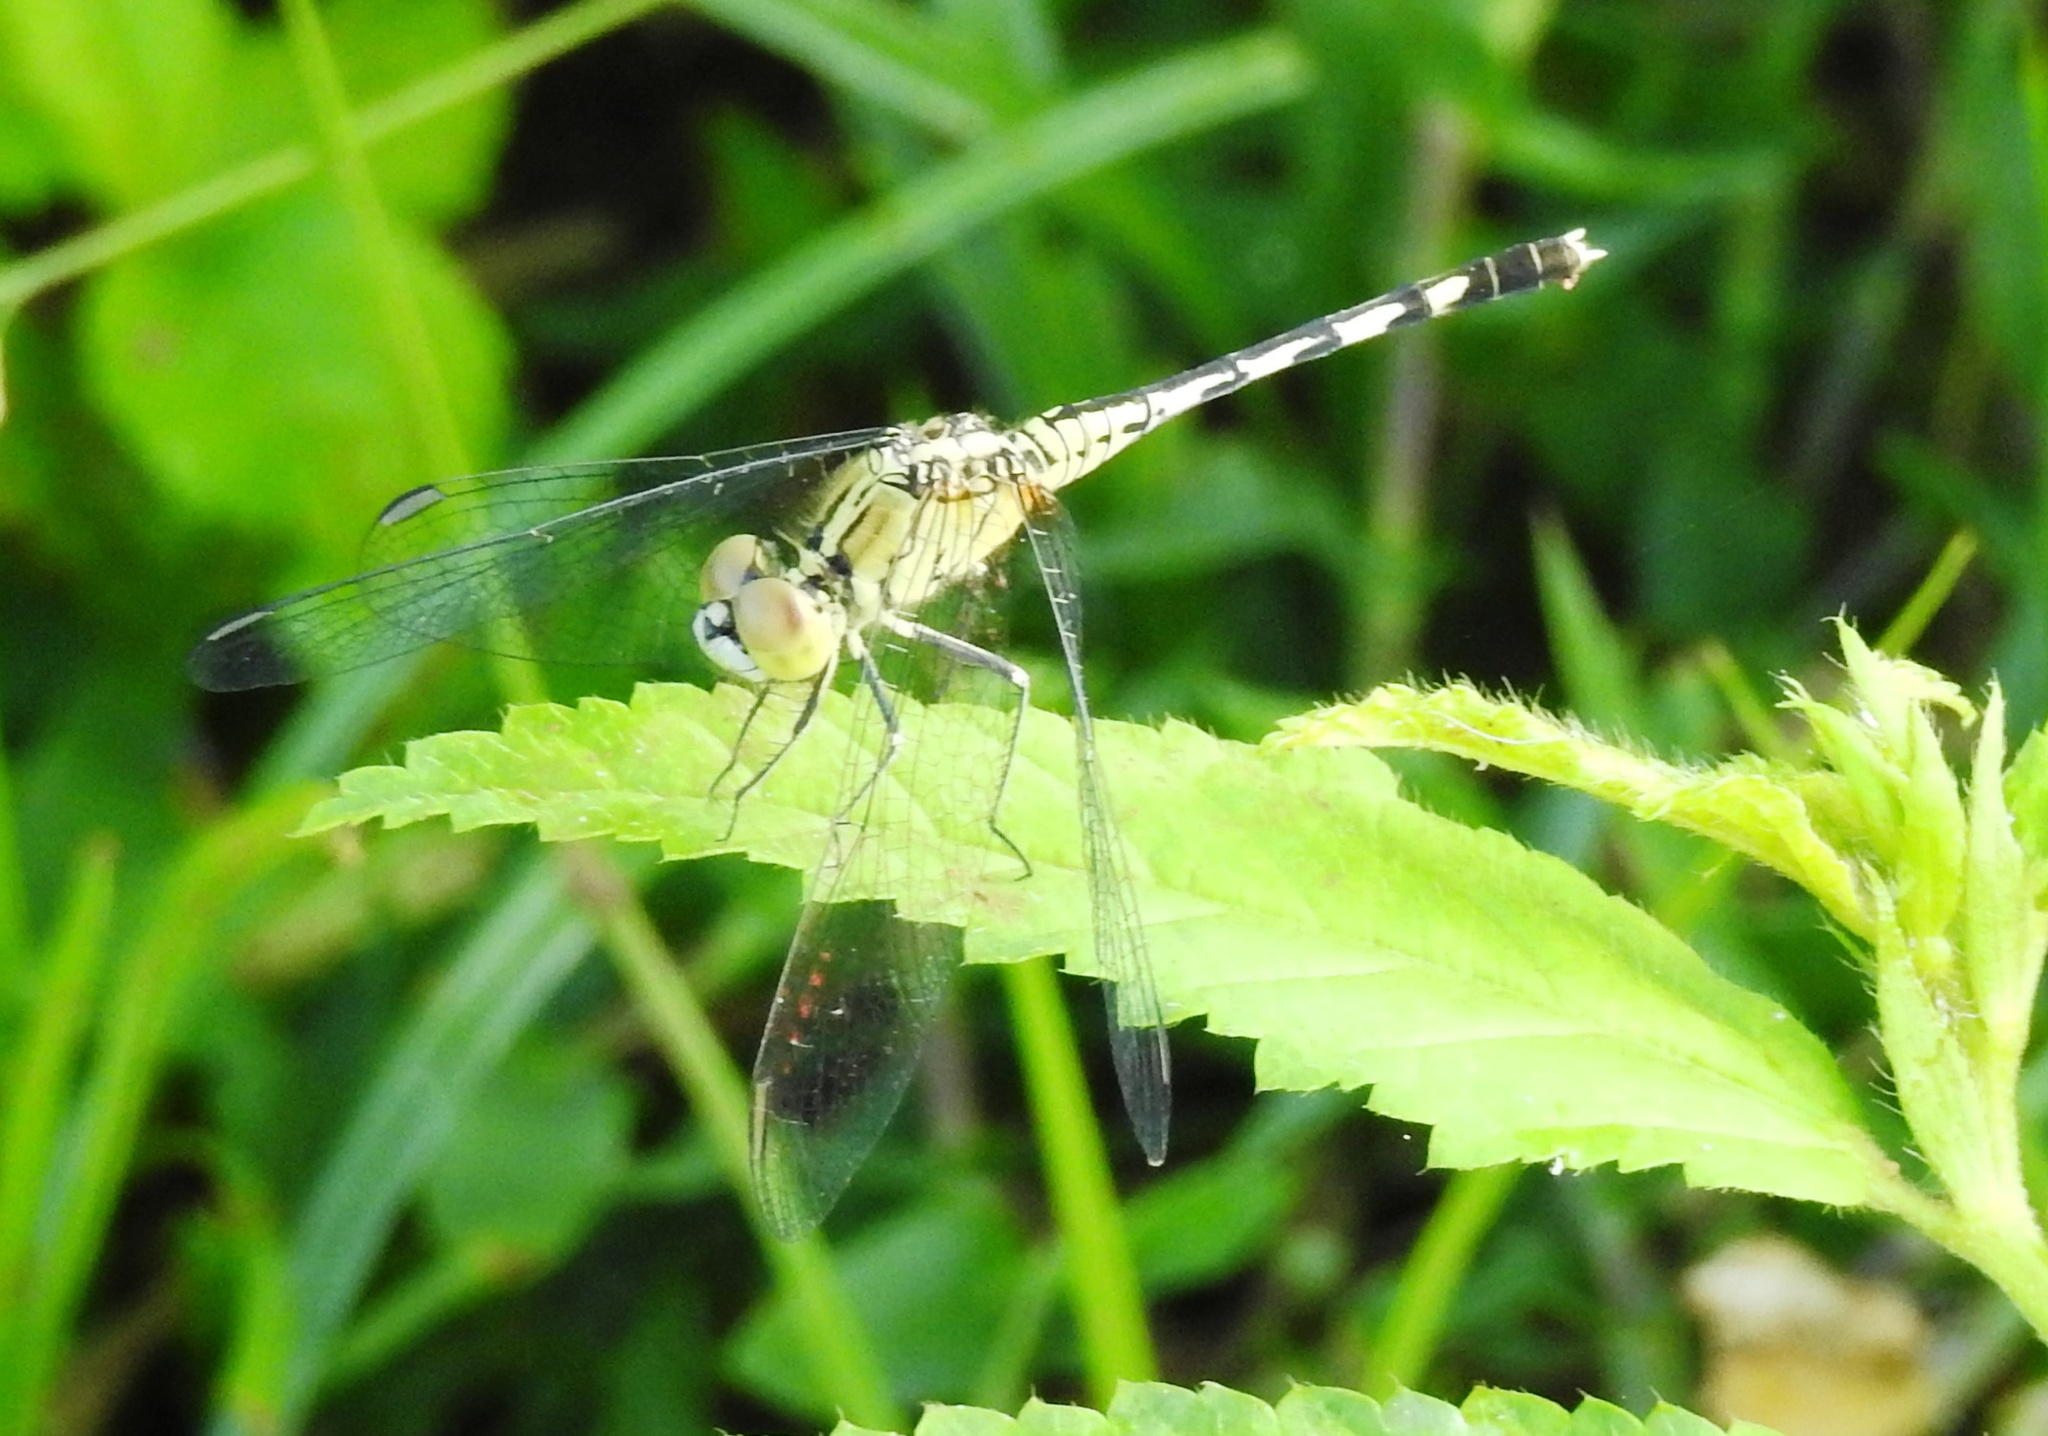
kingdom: Animalia
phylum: Arthropoda
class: Insecta
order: Odonata
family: Libellulidae
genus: Diplacodes
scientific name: Diplacodes trivialis
